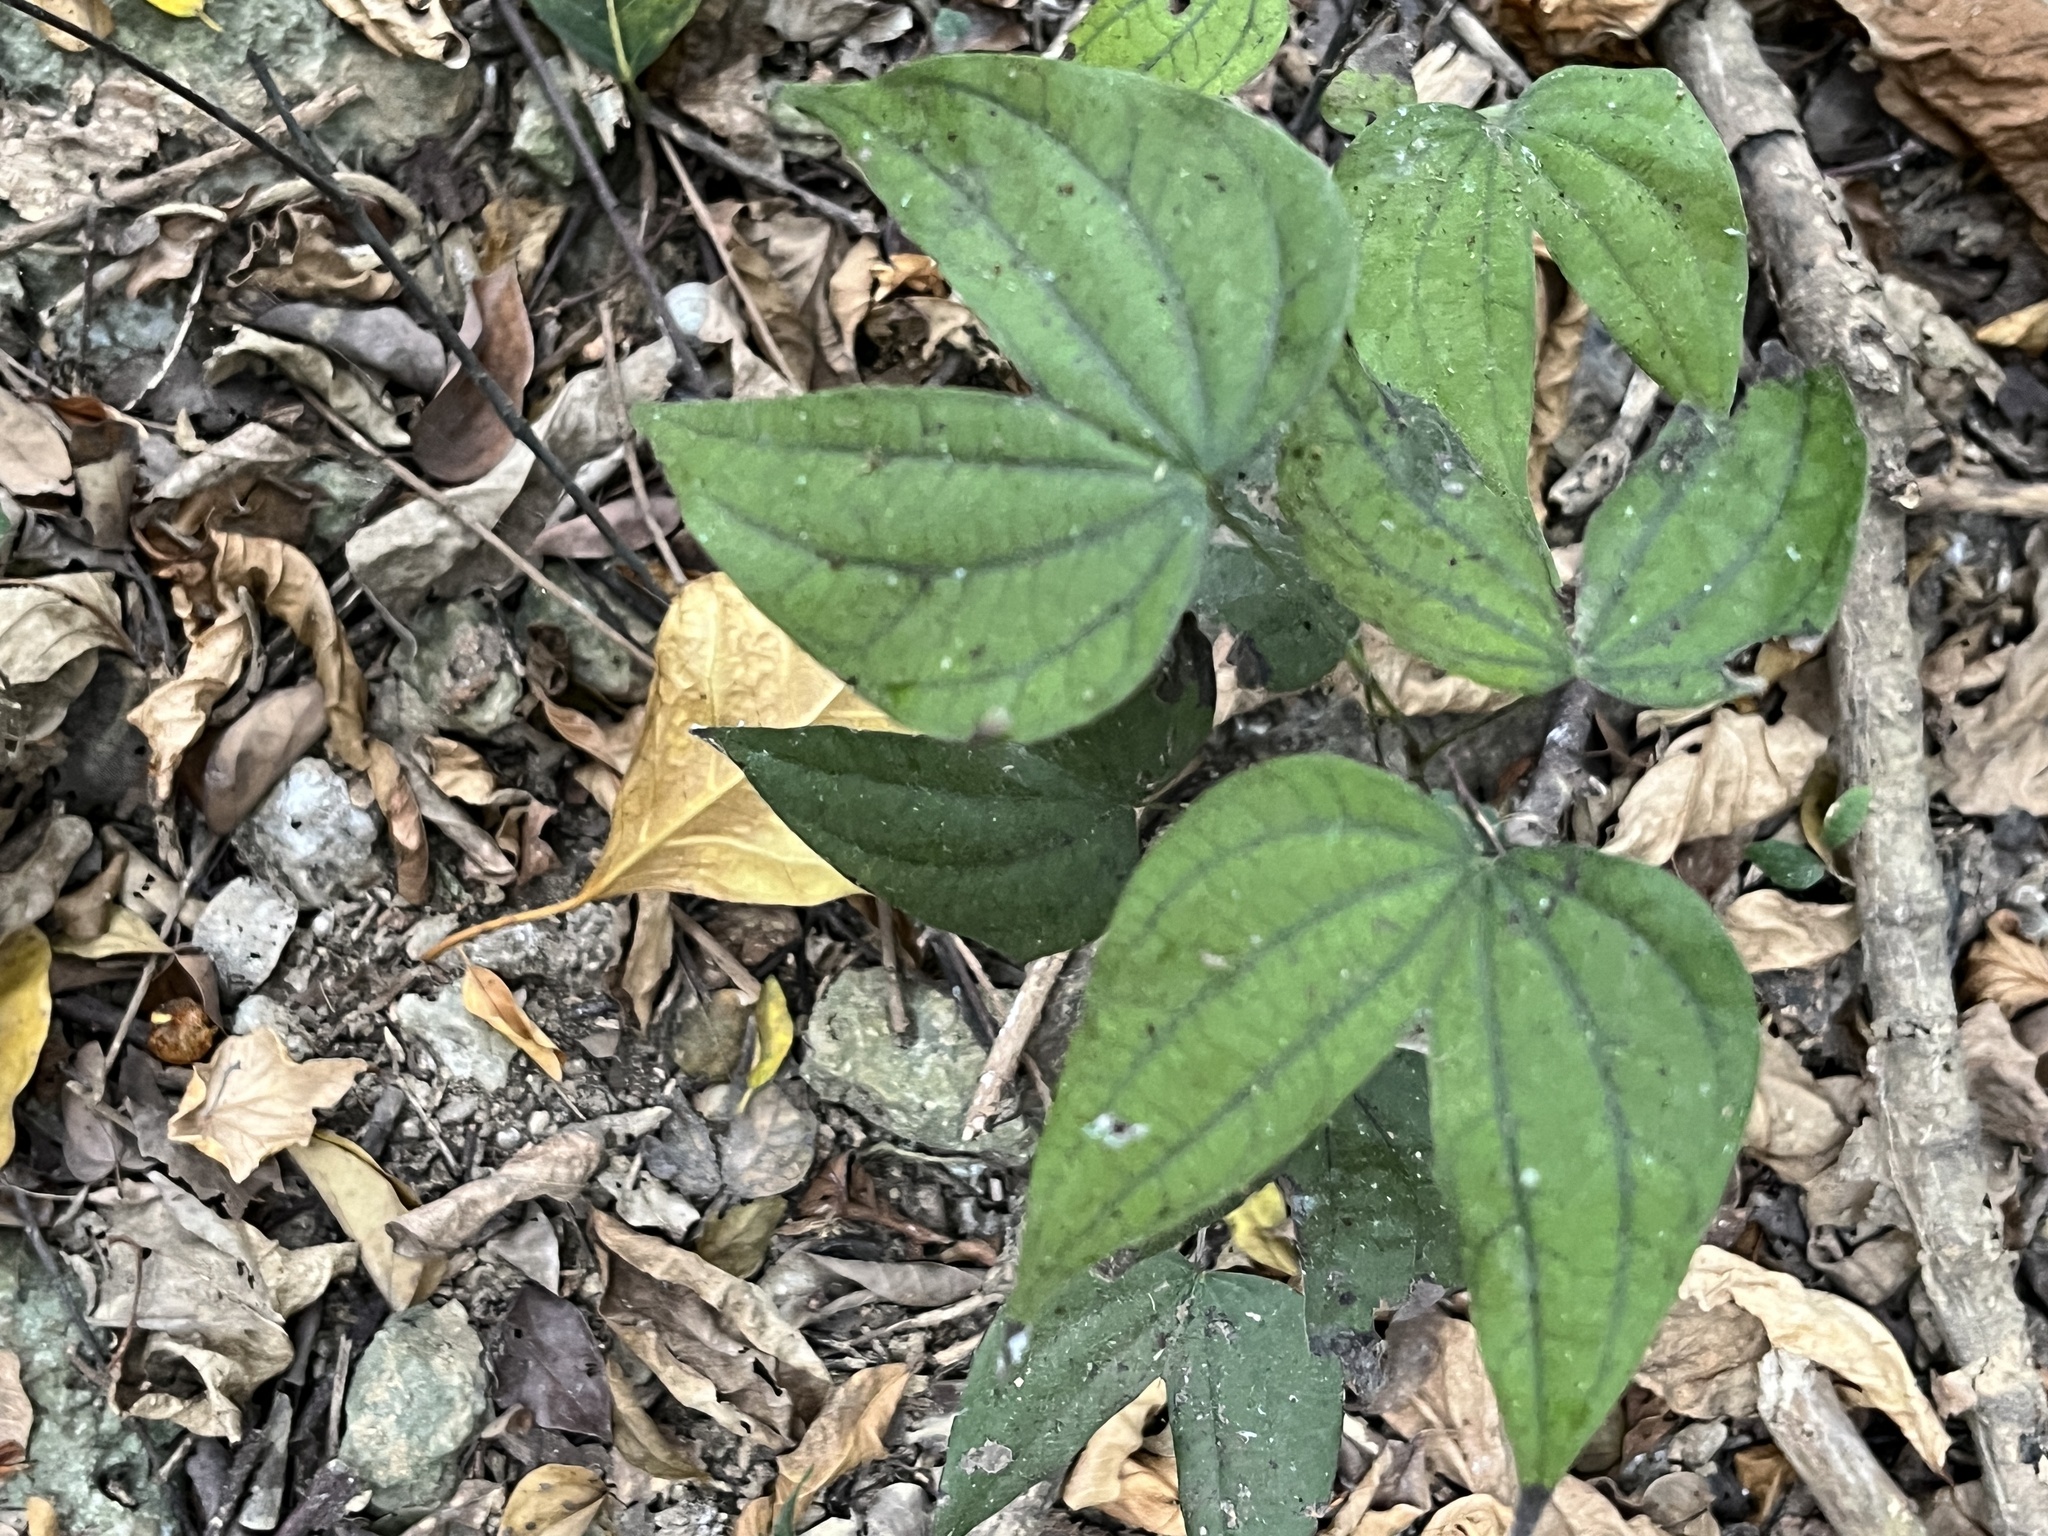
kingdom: Plantae
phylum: Tracheophyta
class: Magnoliopsida
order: Fabales
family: Fabaceae
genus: Phanera
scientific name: Phanera championii
